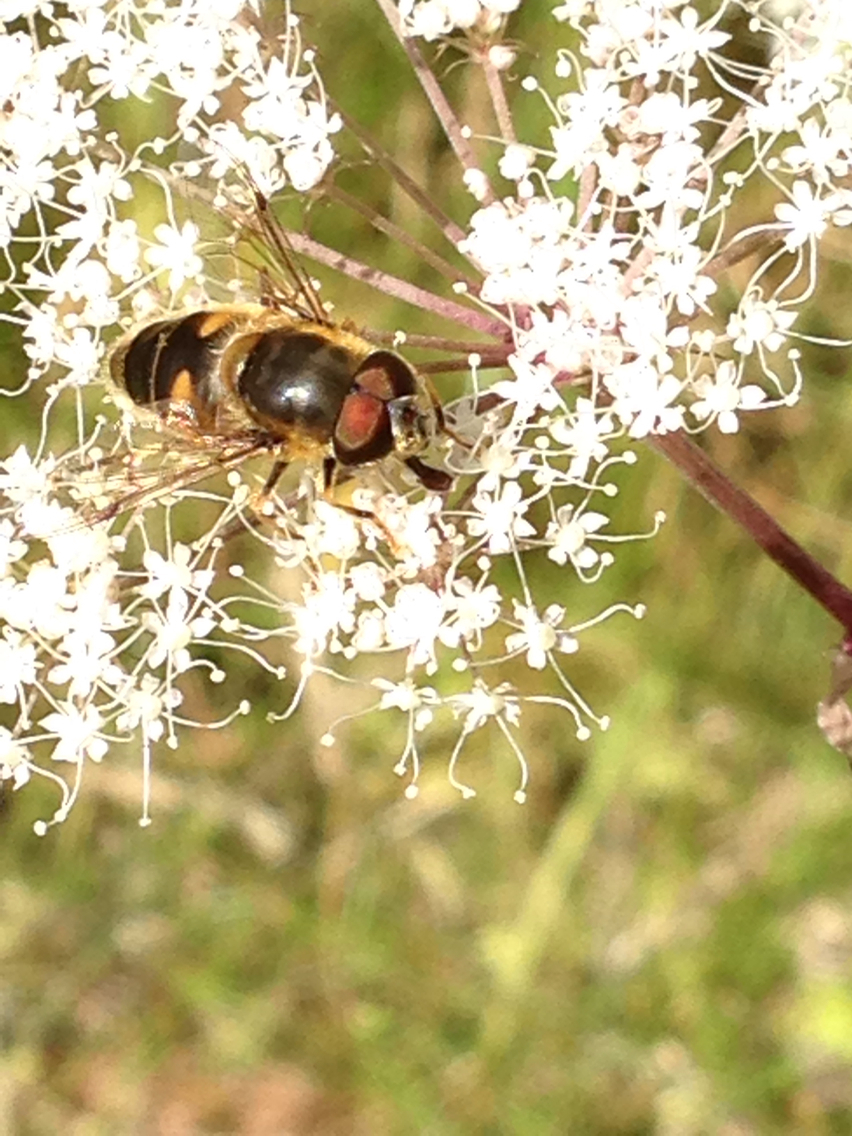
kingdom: Animalia
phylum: Arthropoda
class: Insecta
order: Diptera
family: Syrphidae
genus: Eristalis
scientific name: Eristalis pertinax
